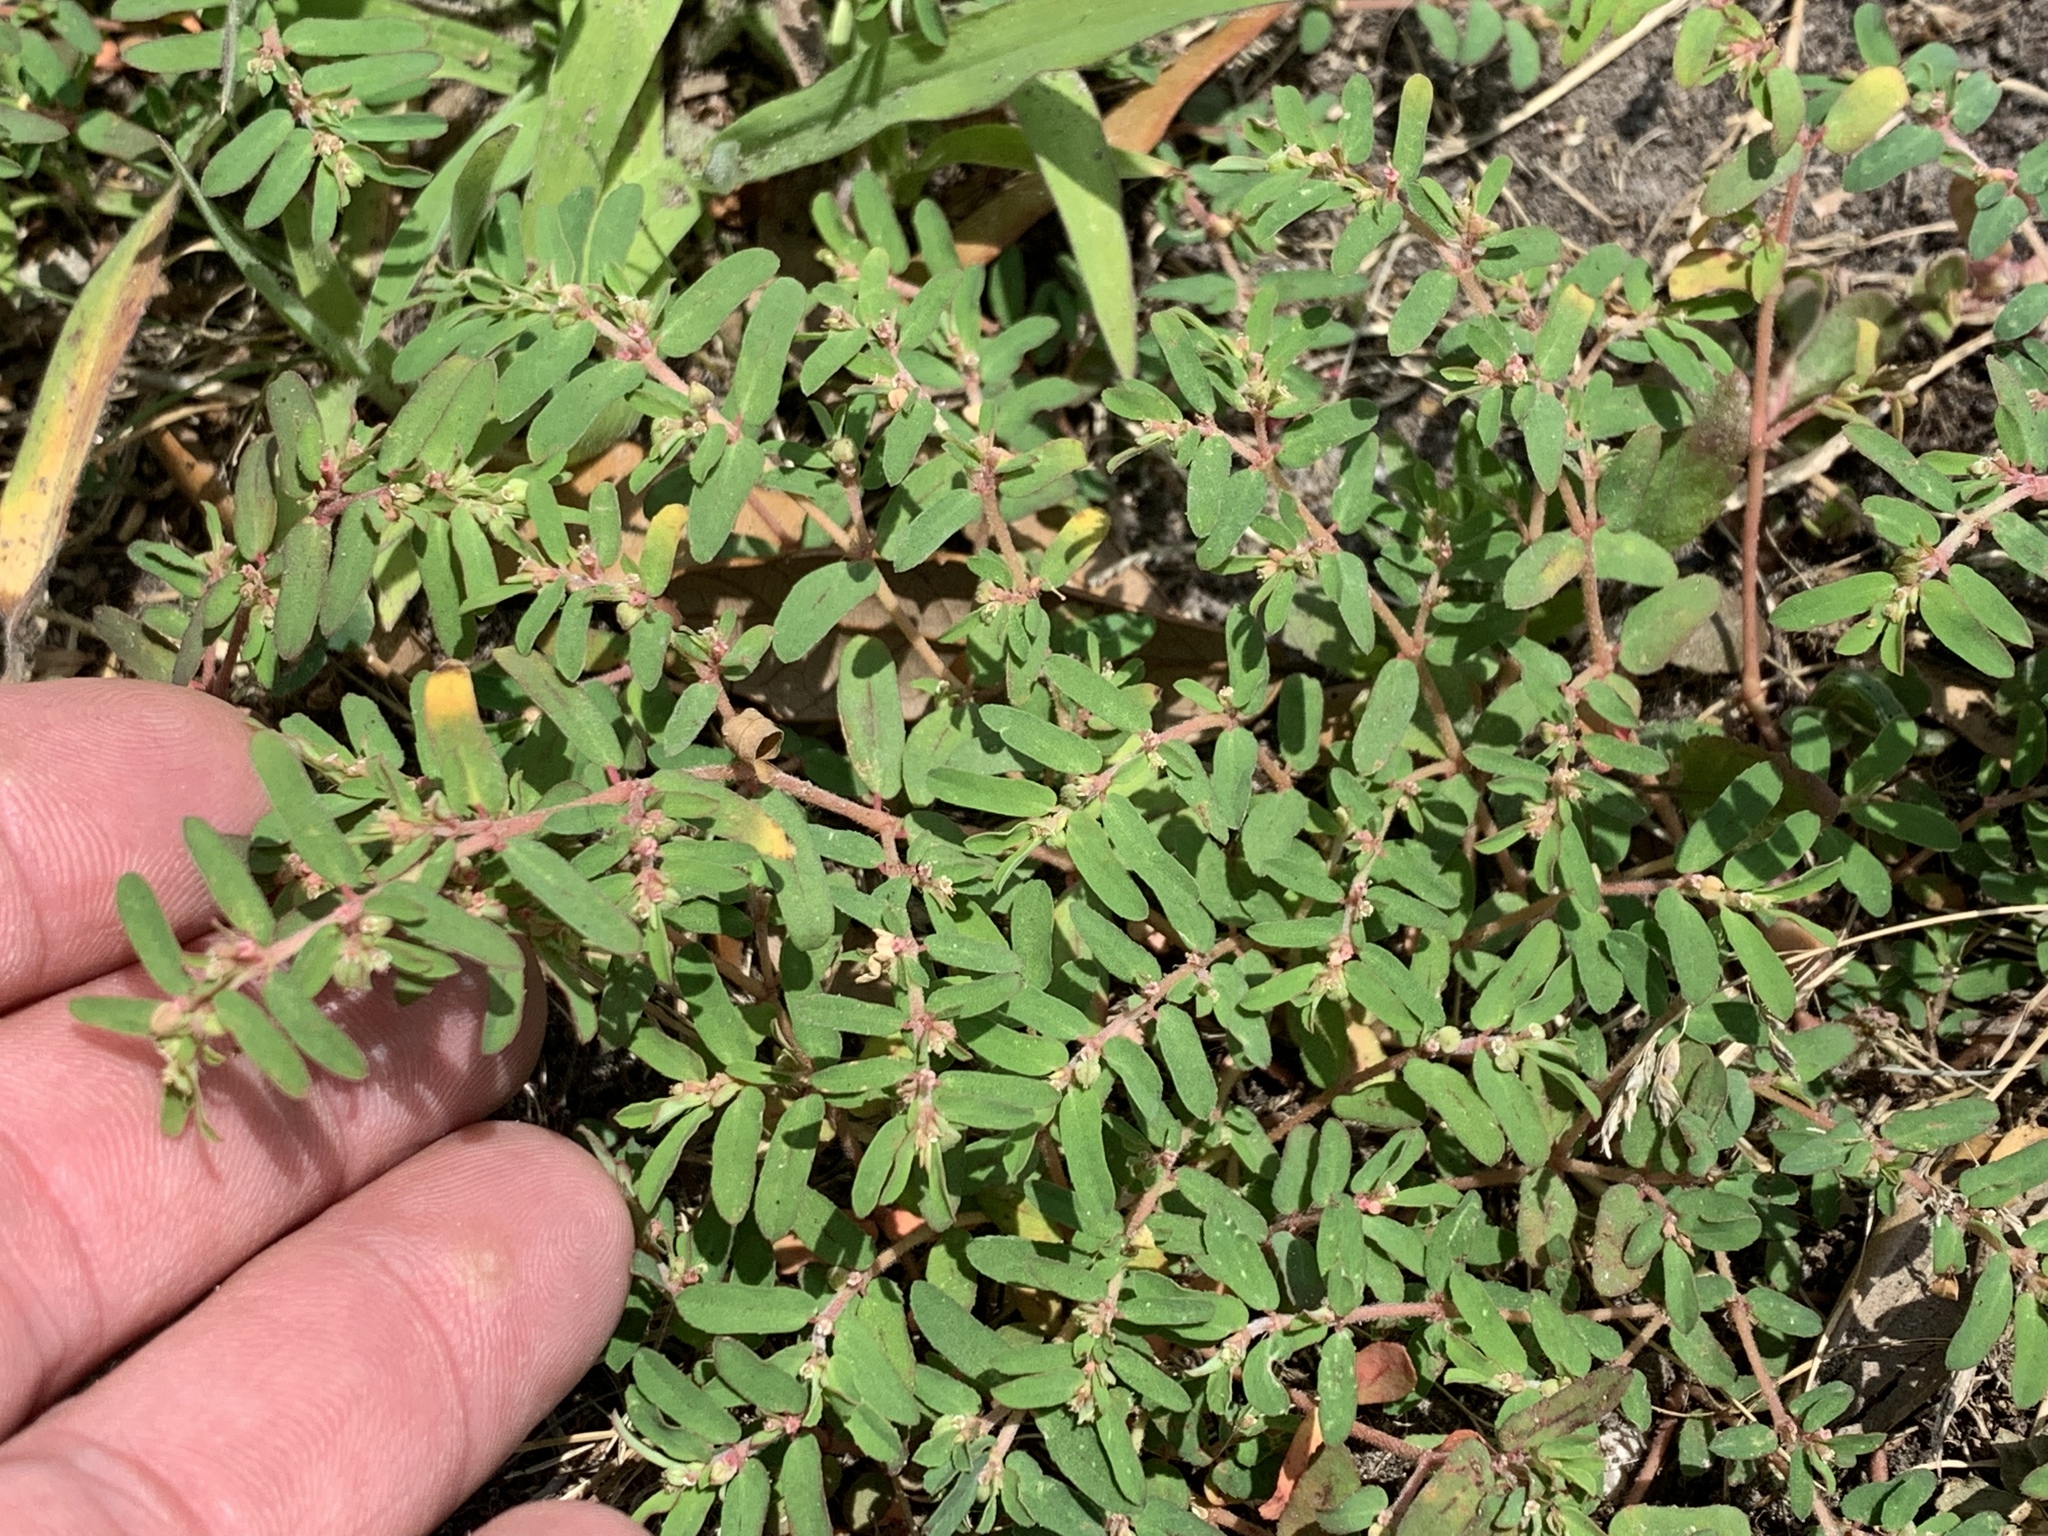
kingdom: Plantae
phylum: Tracheophyta
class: Magnoliopsida
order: Malpighiales
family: Euphorbiaceae
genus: Euphorbia
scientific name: Euphorbia maculata
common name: Spotted spurge
